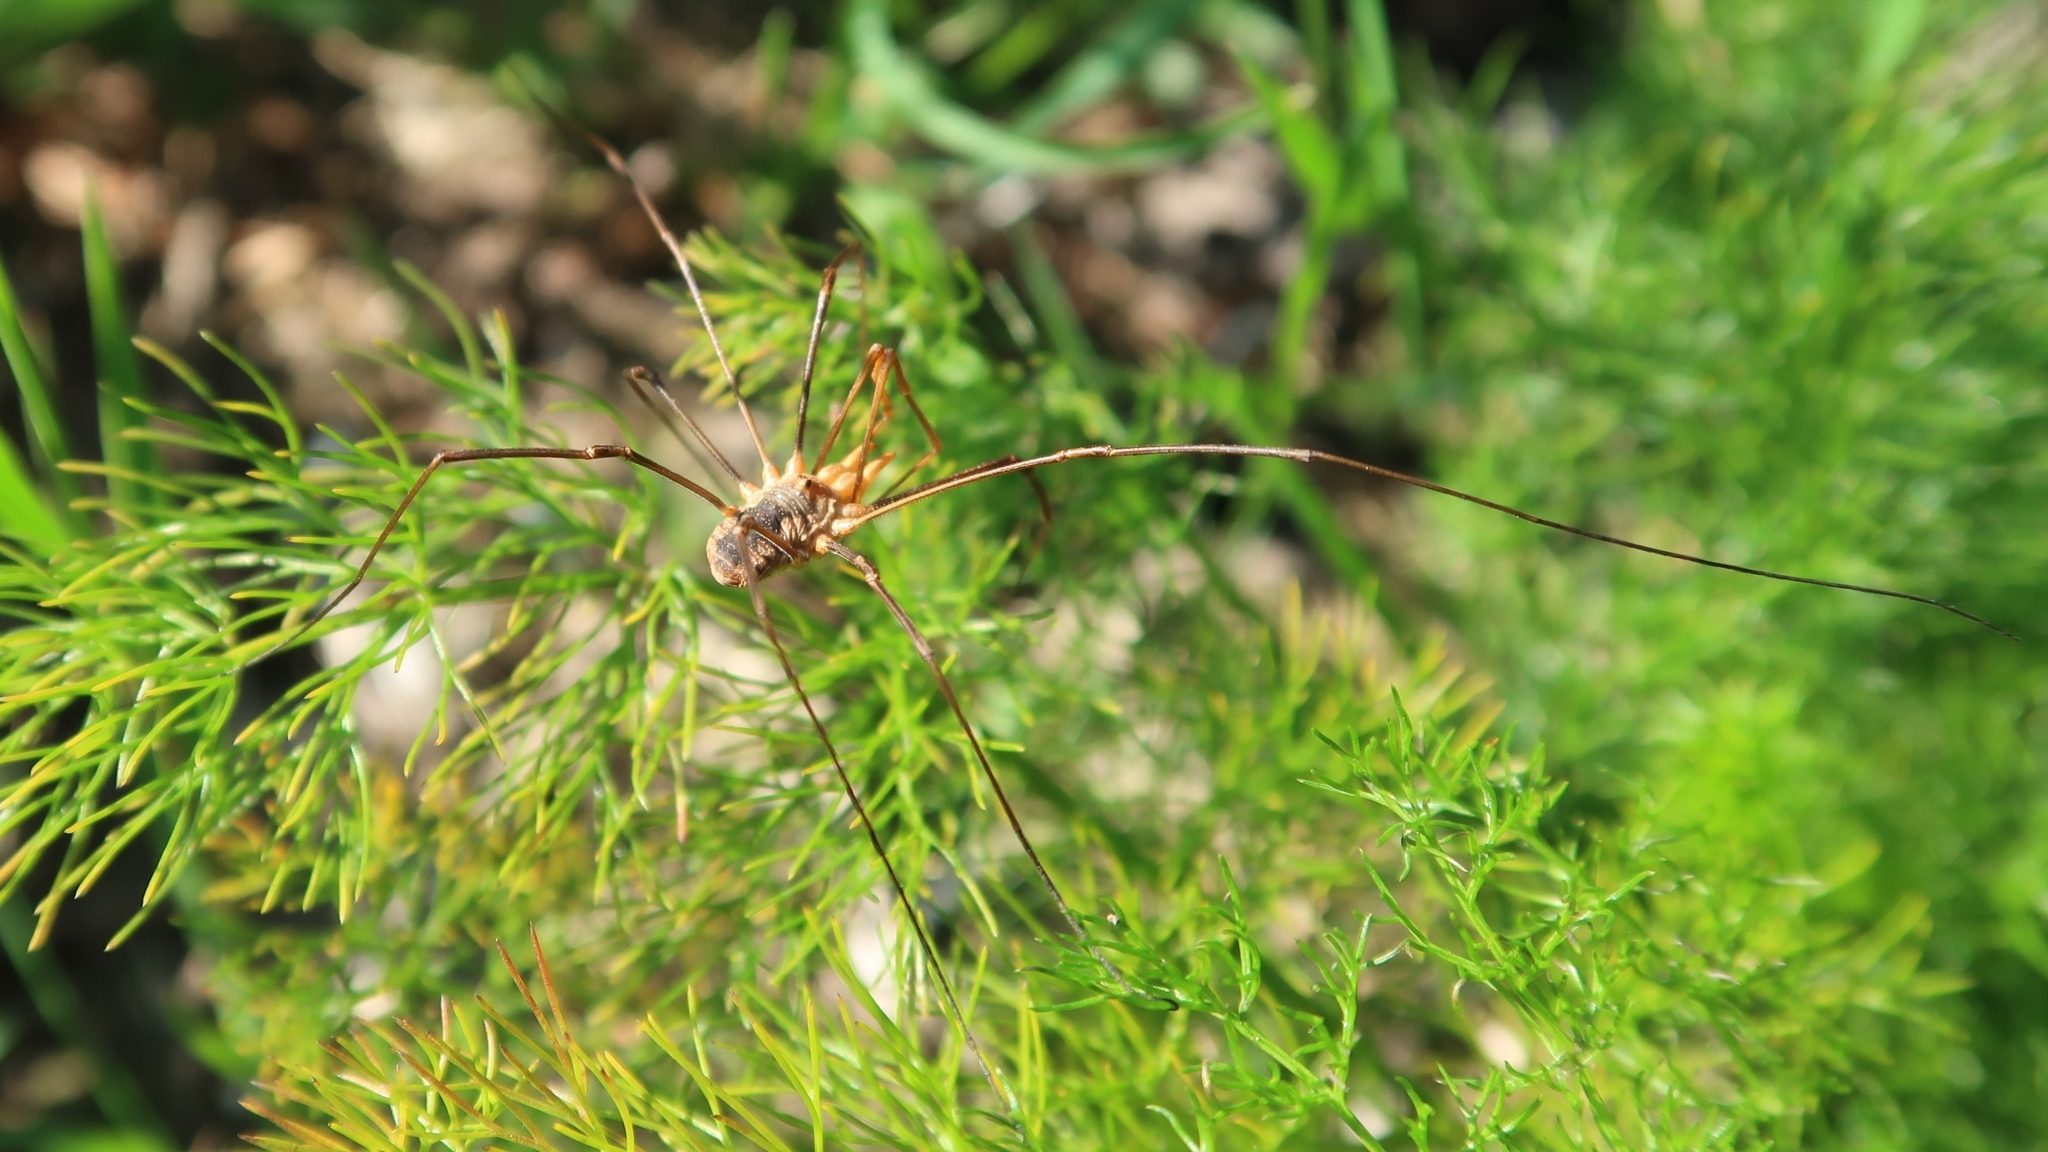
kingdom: Animalia
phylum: Arthropoda
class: Arachnida
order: Opiliones
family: Phalangiidae
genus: Phalangium
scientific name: Phalangium opilio
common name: Daddy longleg
